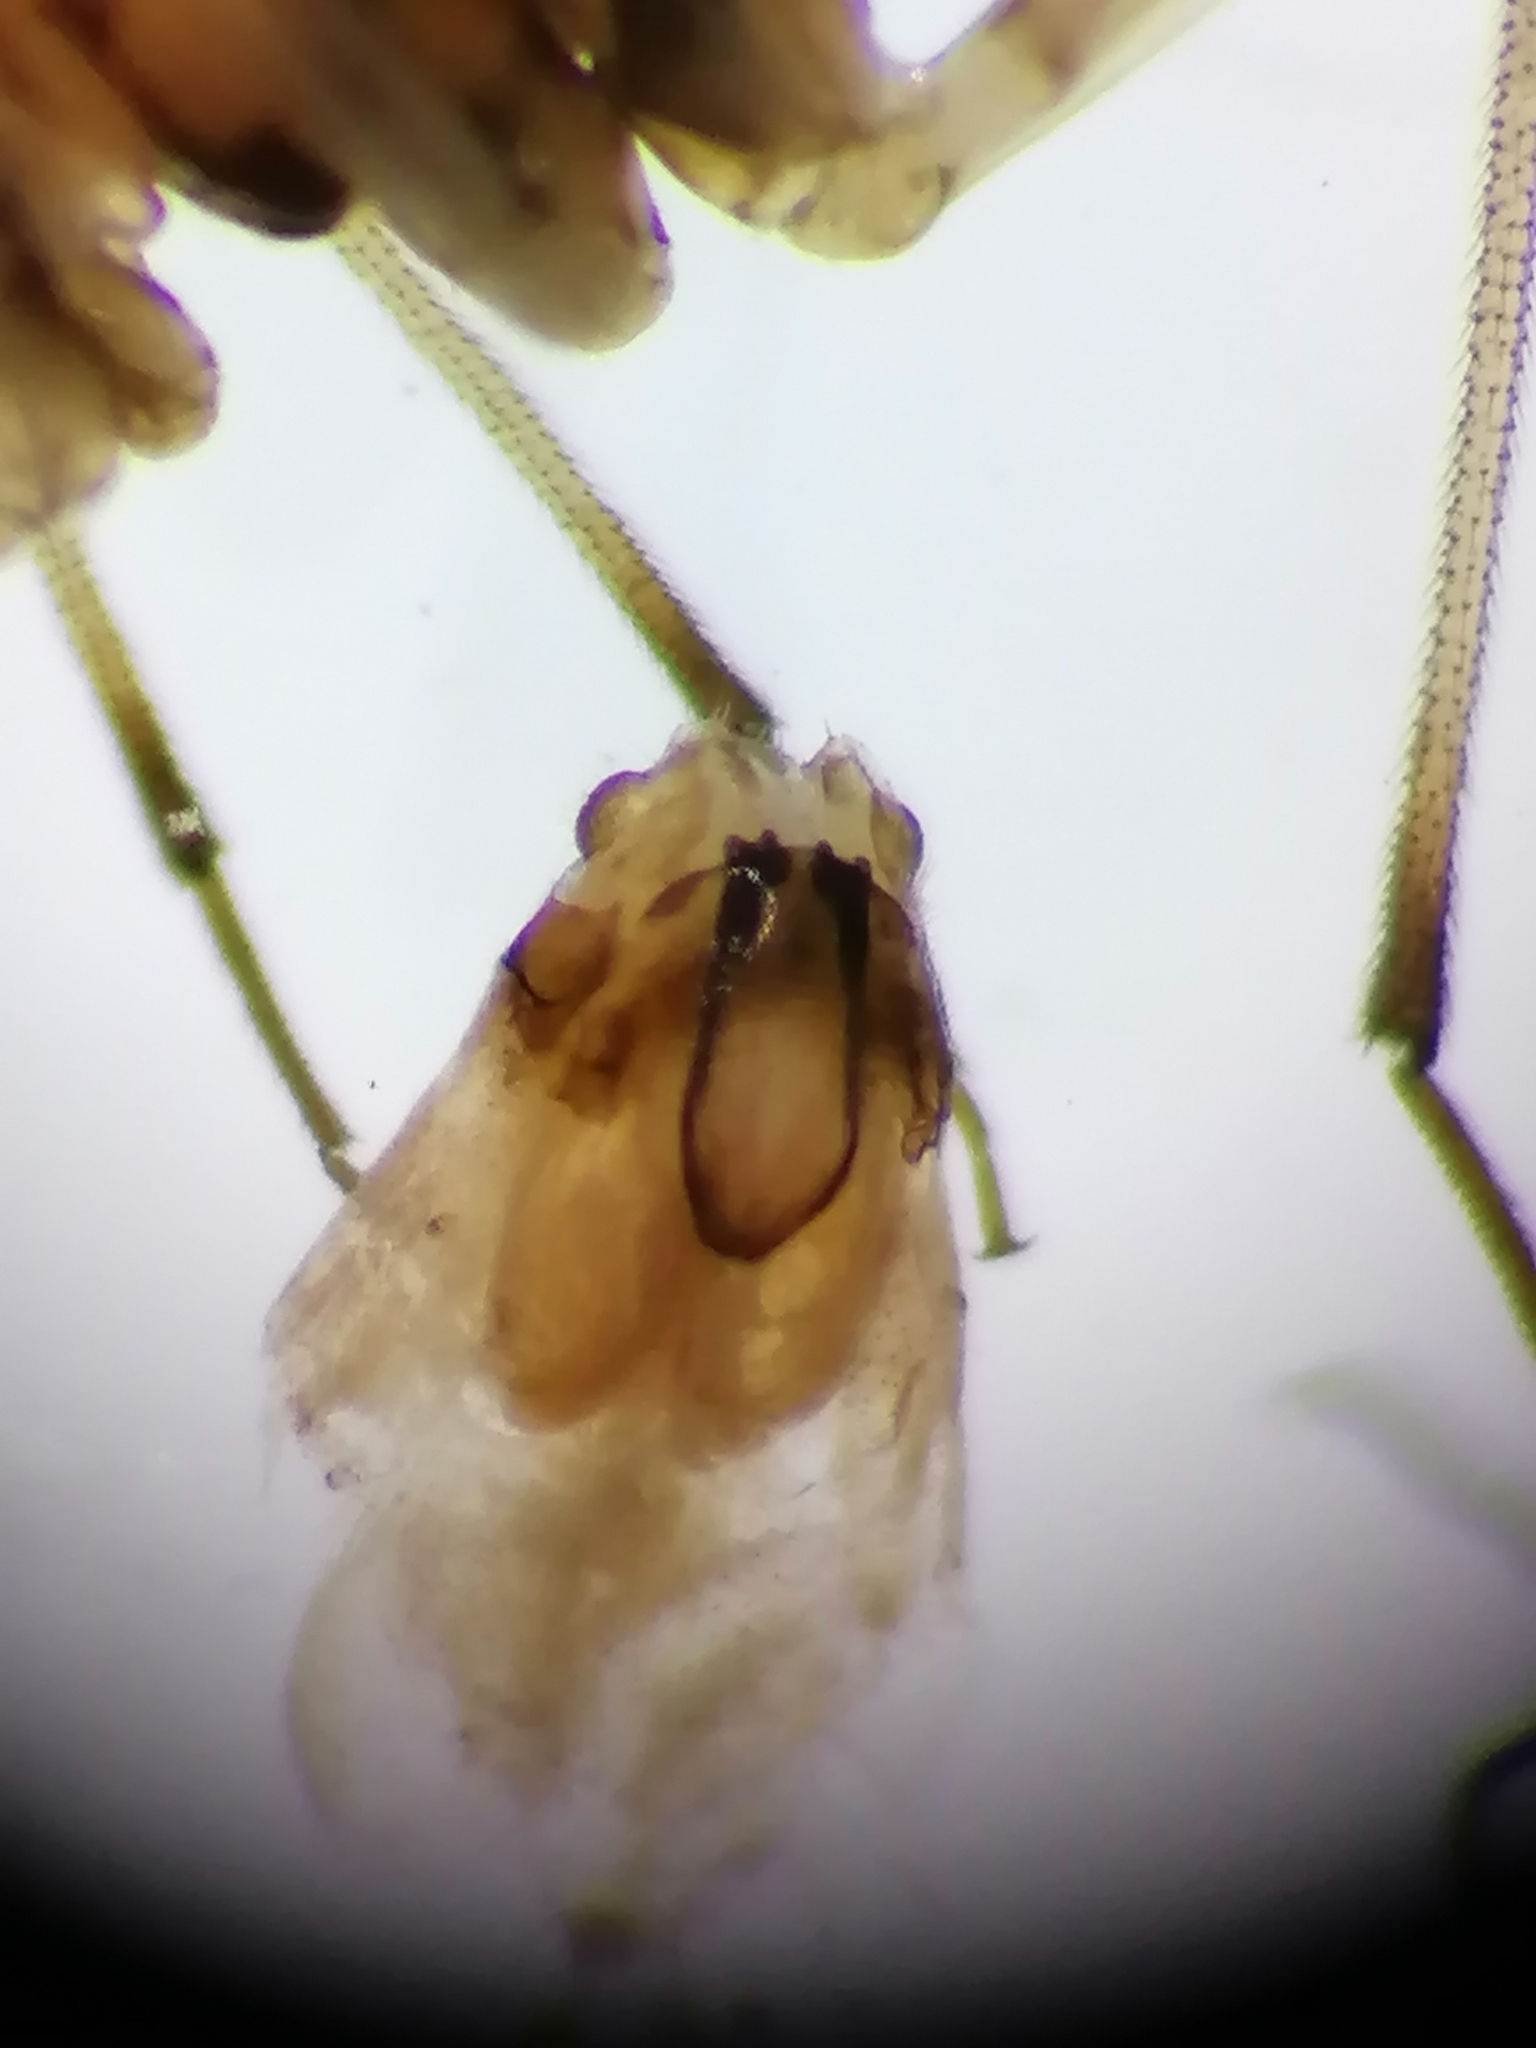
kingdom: Animalia
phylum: Arthropoda
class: Insecta
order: Psocodea
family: Mesopsocidae
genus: Mesopsocus
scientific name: Mesopsocus unipunctatus
